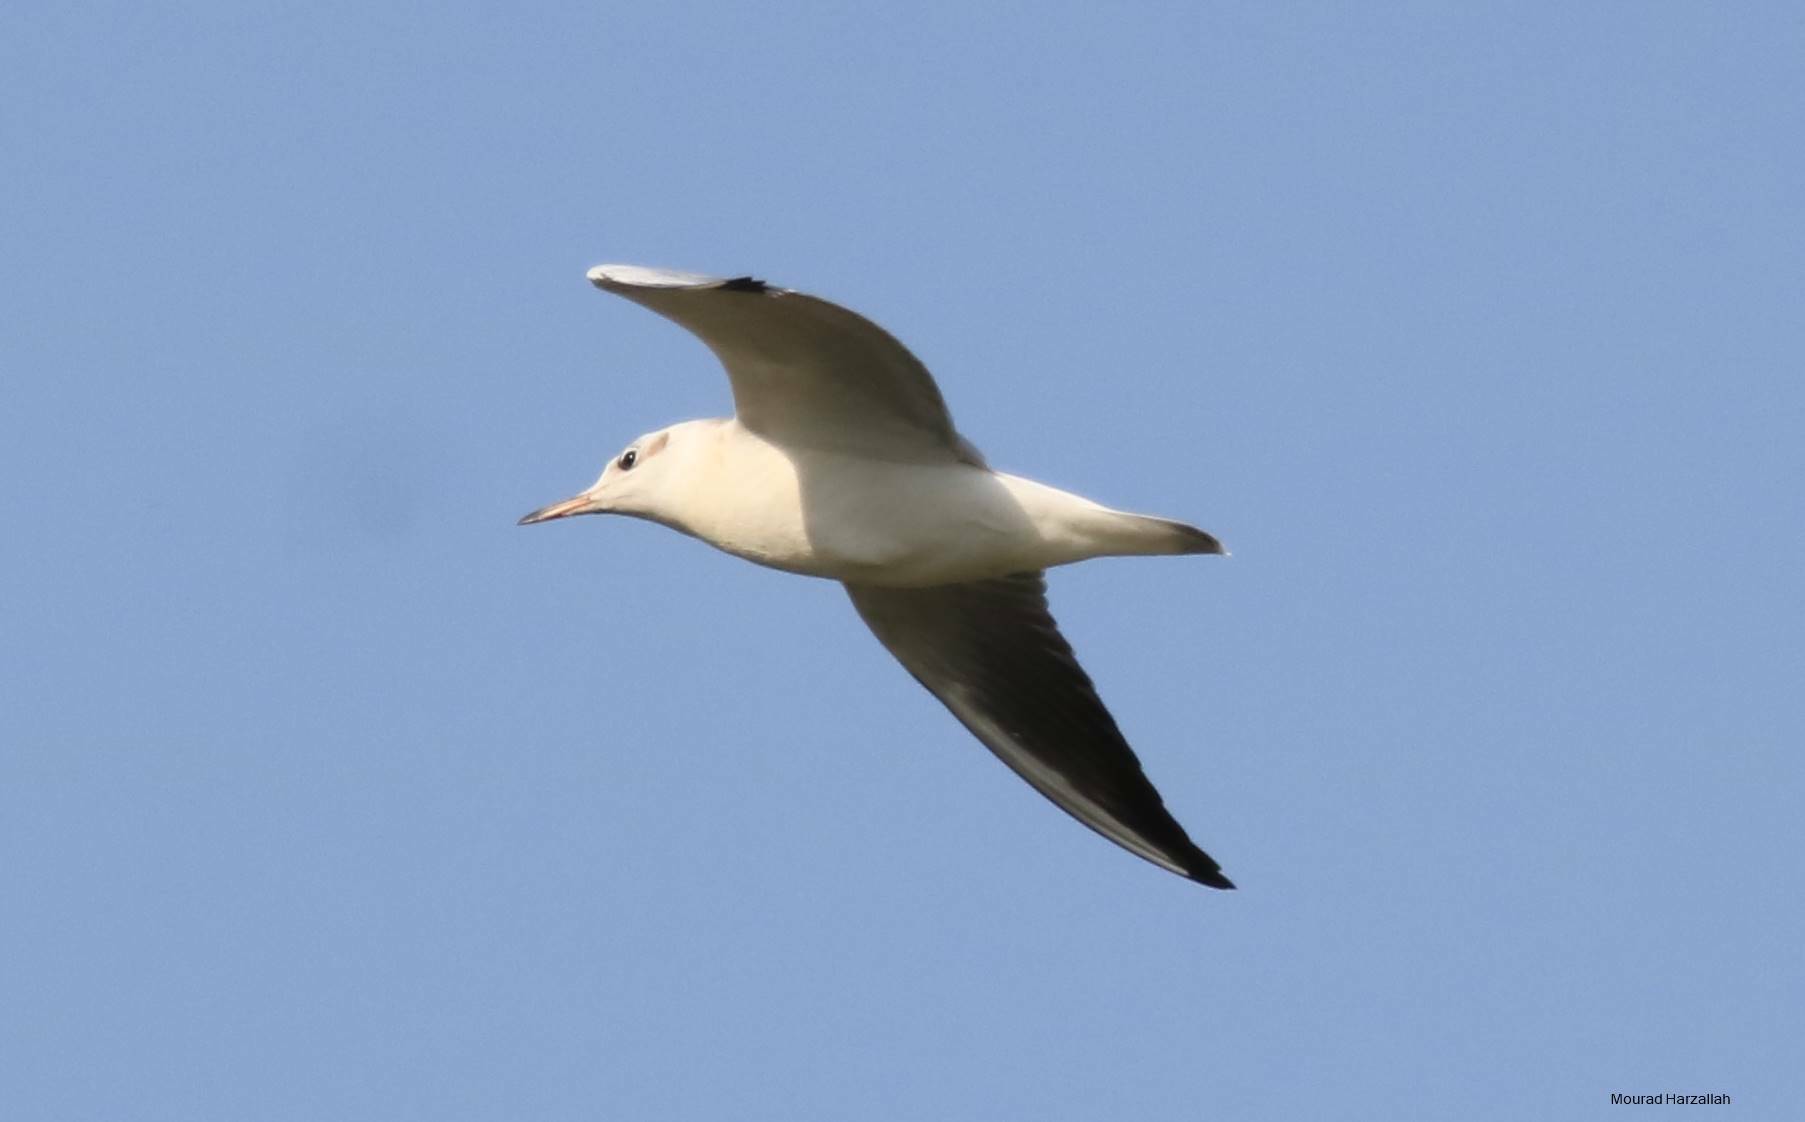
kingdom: Animalia
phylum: Chordata
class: Aves
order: Charadriiformes
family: Laridae
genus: Chroicocephalus
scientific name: Chroicocephalus ridibundus
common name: Black-headed gull
